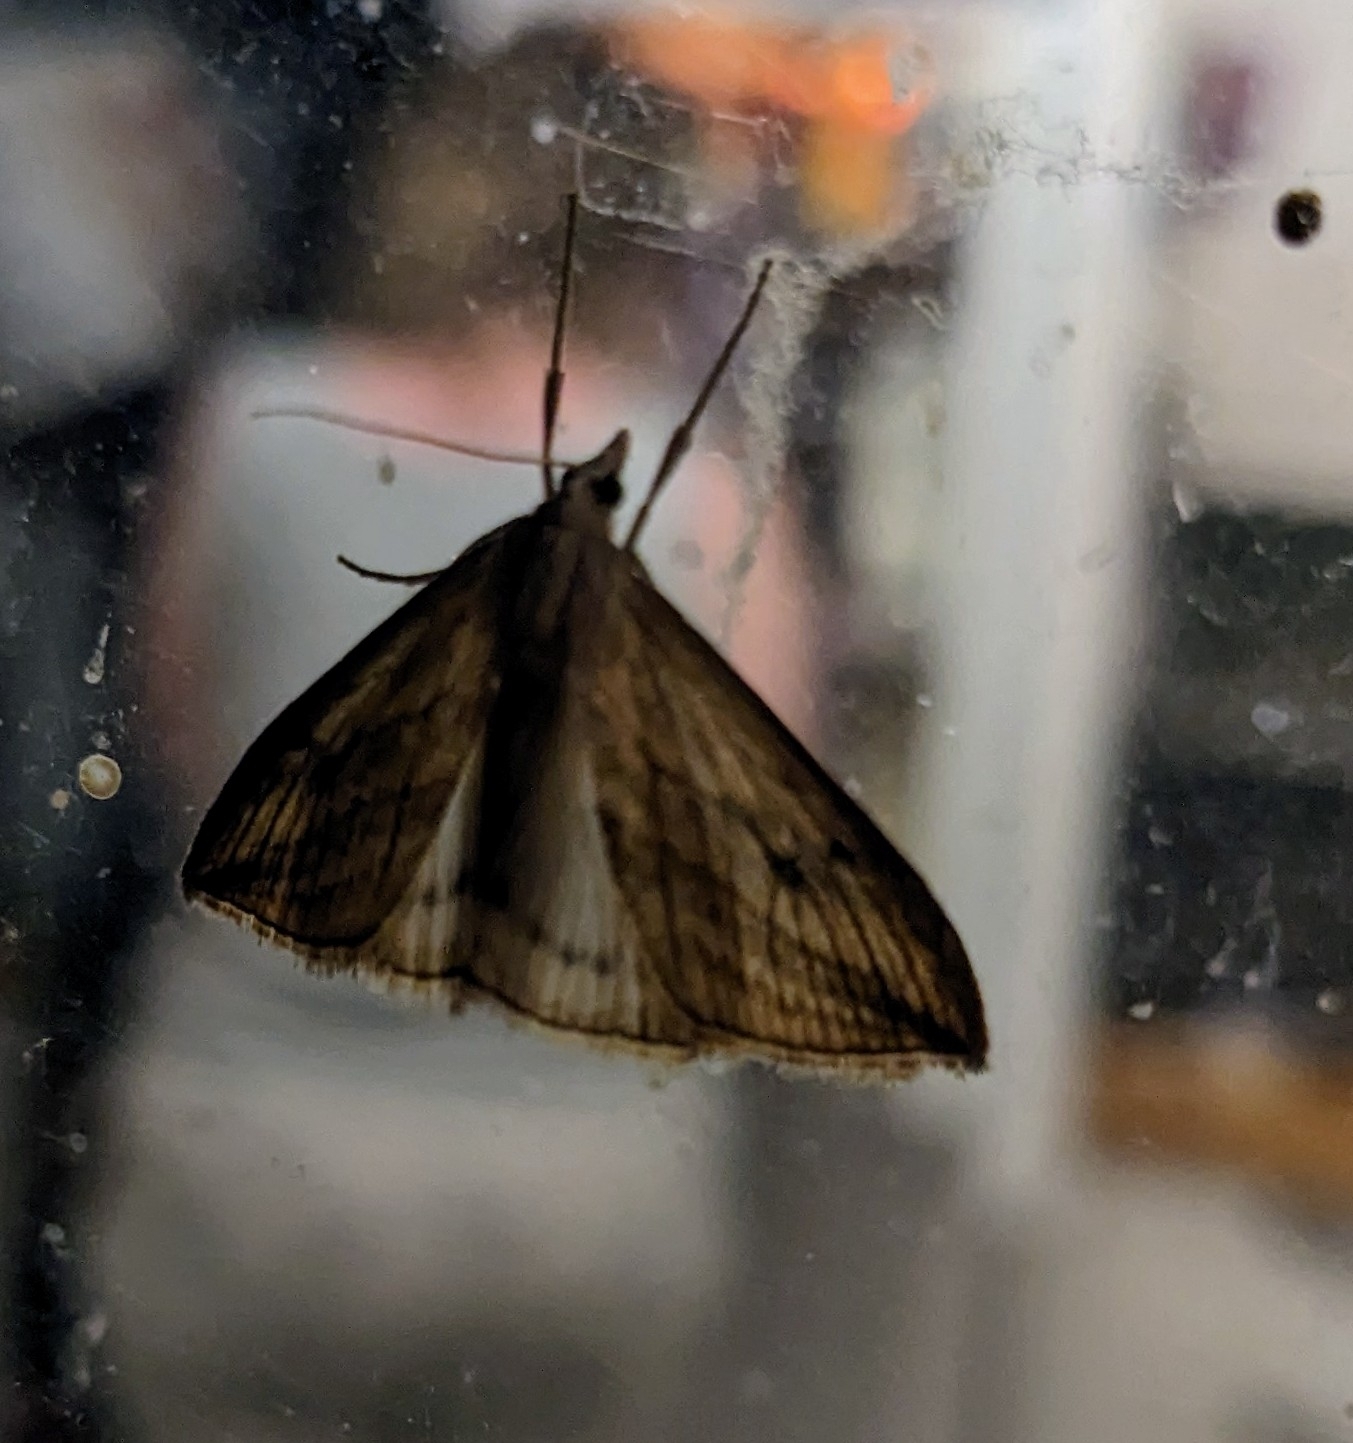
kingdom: Animalia
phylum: Arthropoda
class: Insecta
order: Lepidoptera
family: Crambidae
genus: Evergestis
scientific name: Evergestis forficalis
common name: Garden pebble
